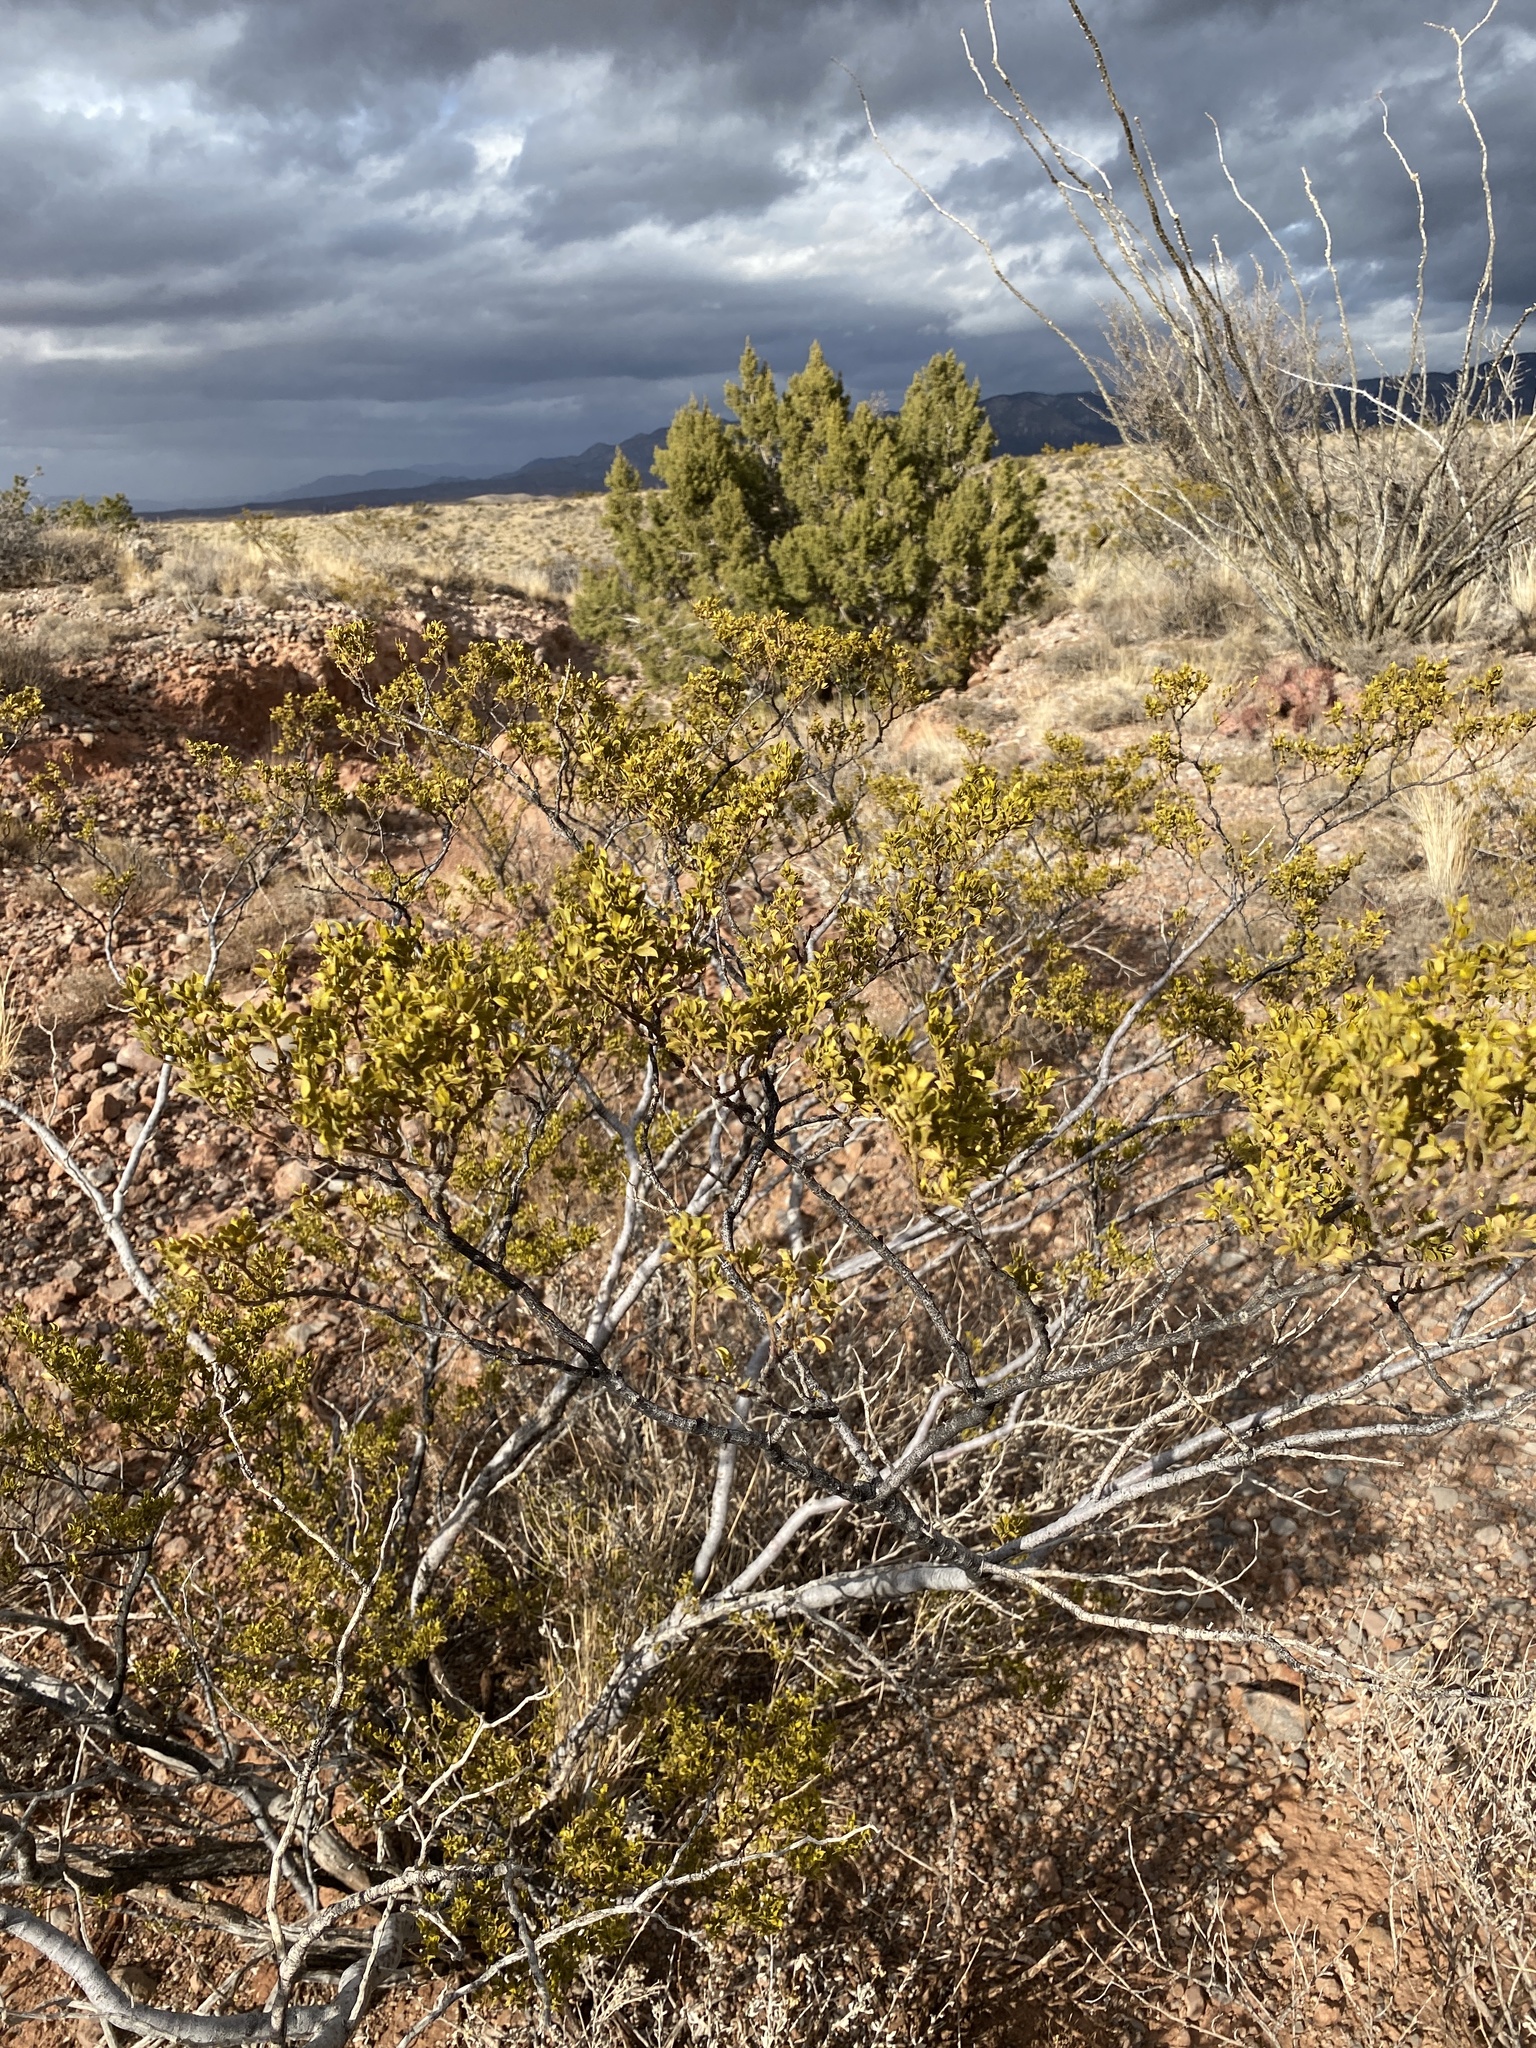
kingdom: Plantae
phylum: Tracheophyta
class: Magnoliopsida
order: Zygophyllales
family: Zygophyllaceae
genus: Larrea
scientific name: Larrea tridentata
